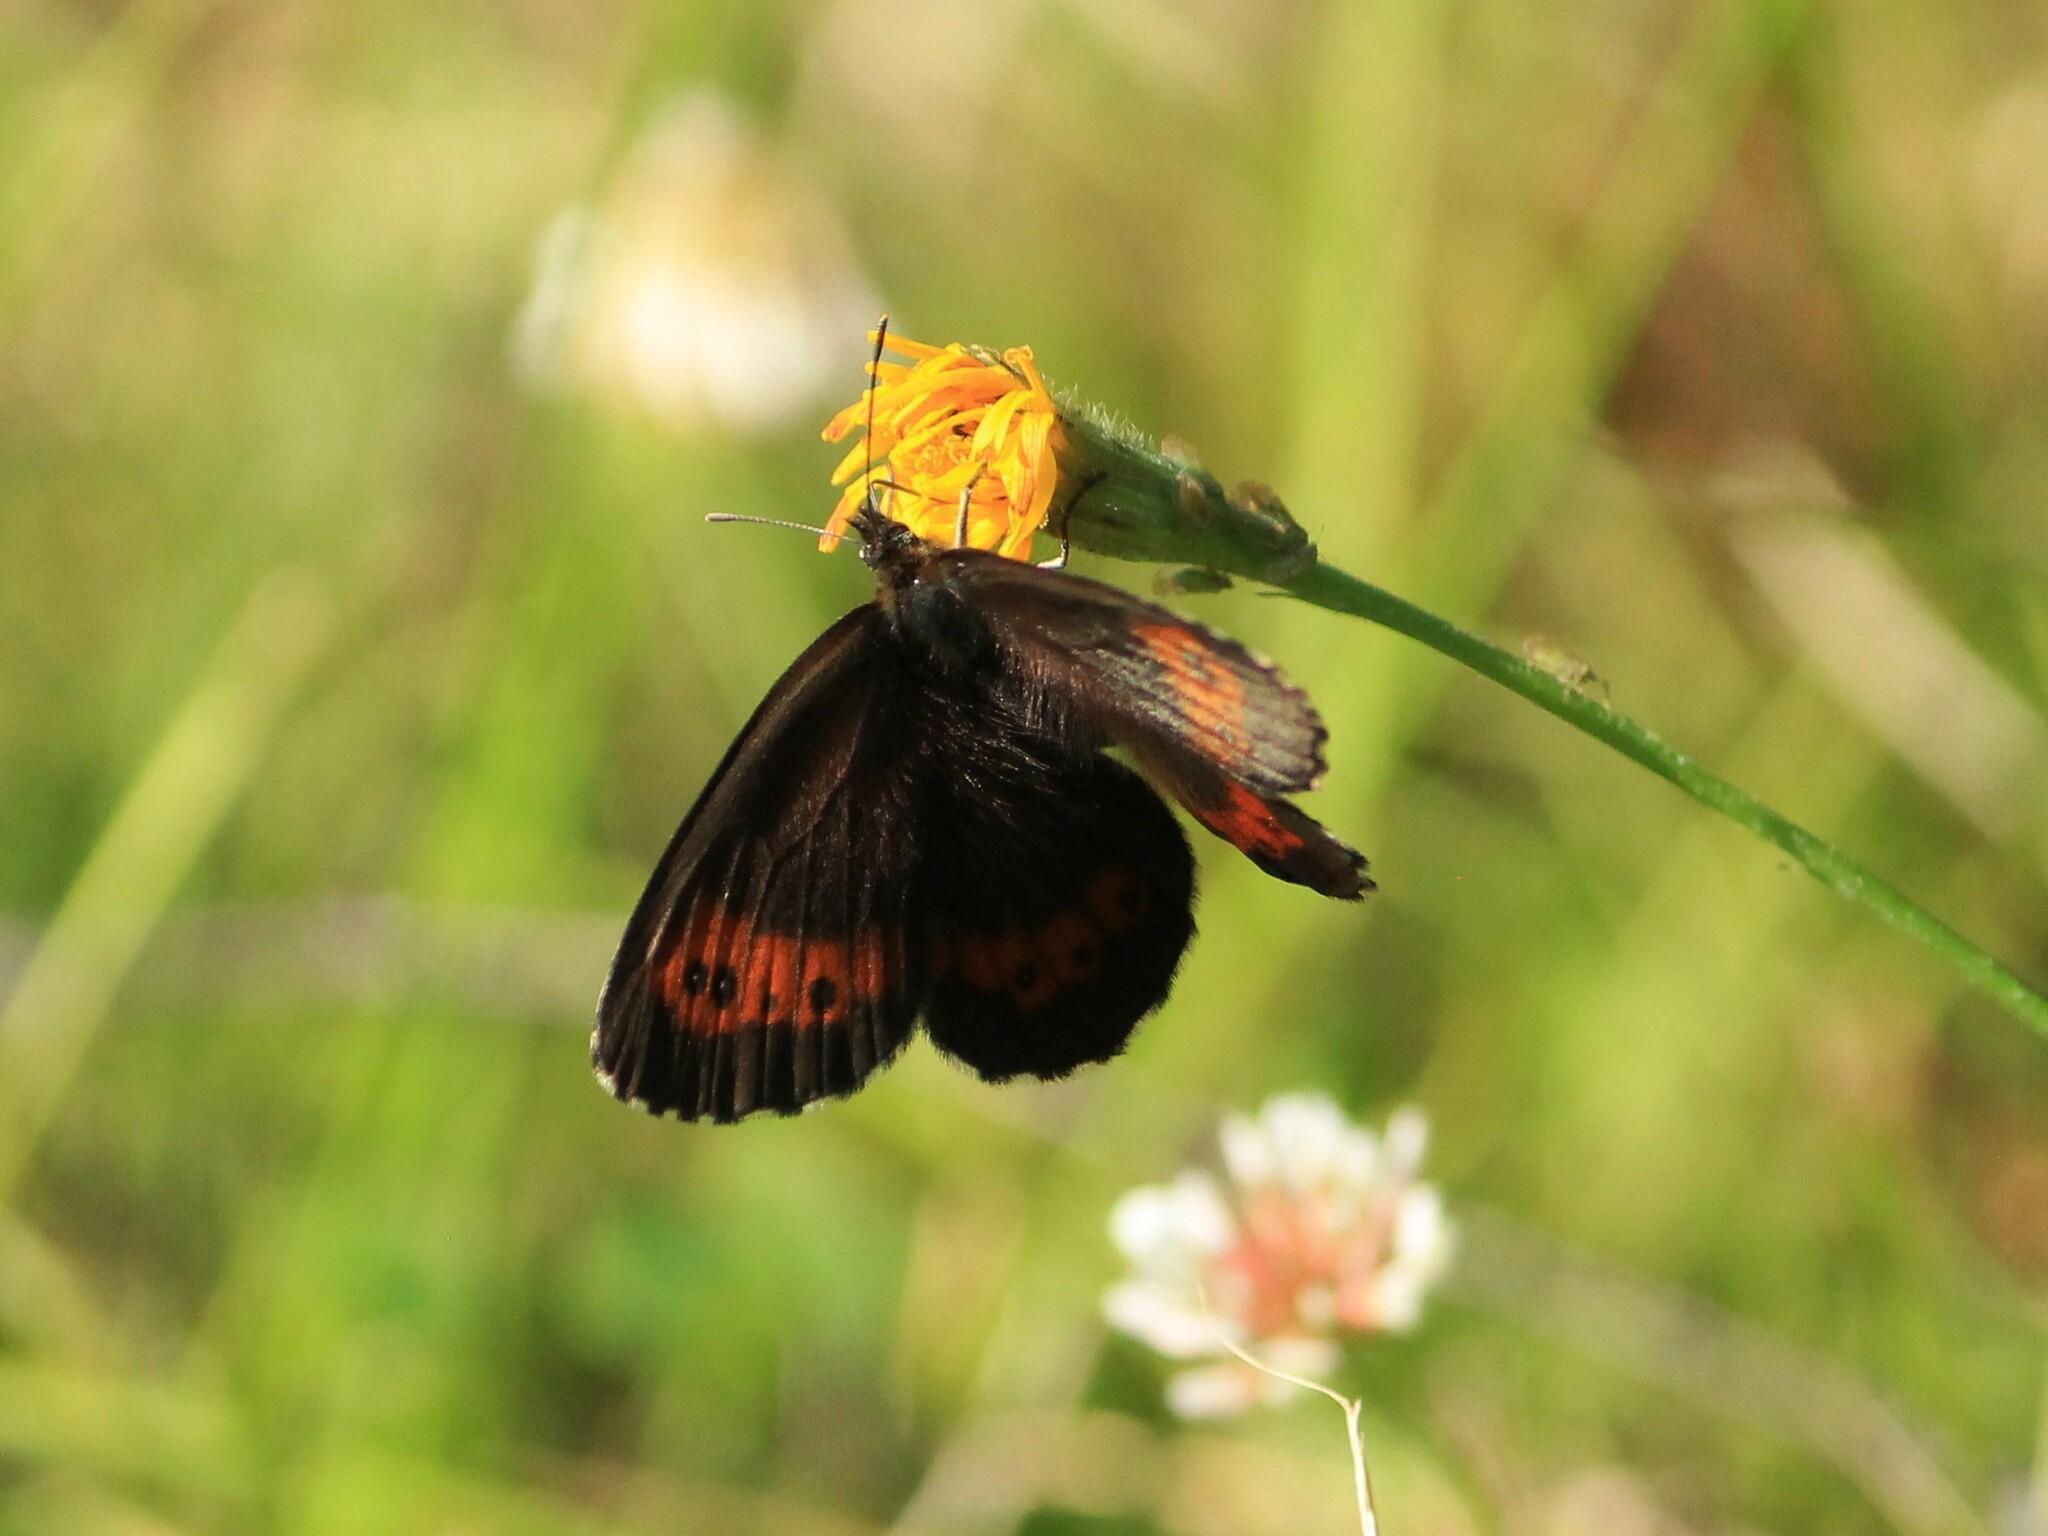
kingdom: Animalia
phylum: Arthropoda
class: Insecta
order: Lepidoptera
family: Nymphalidae
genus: Erebia
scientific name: Erebia ligea
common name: Arran brown
